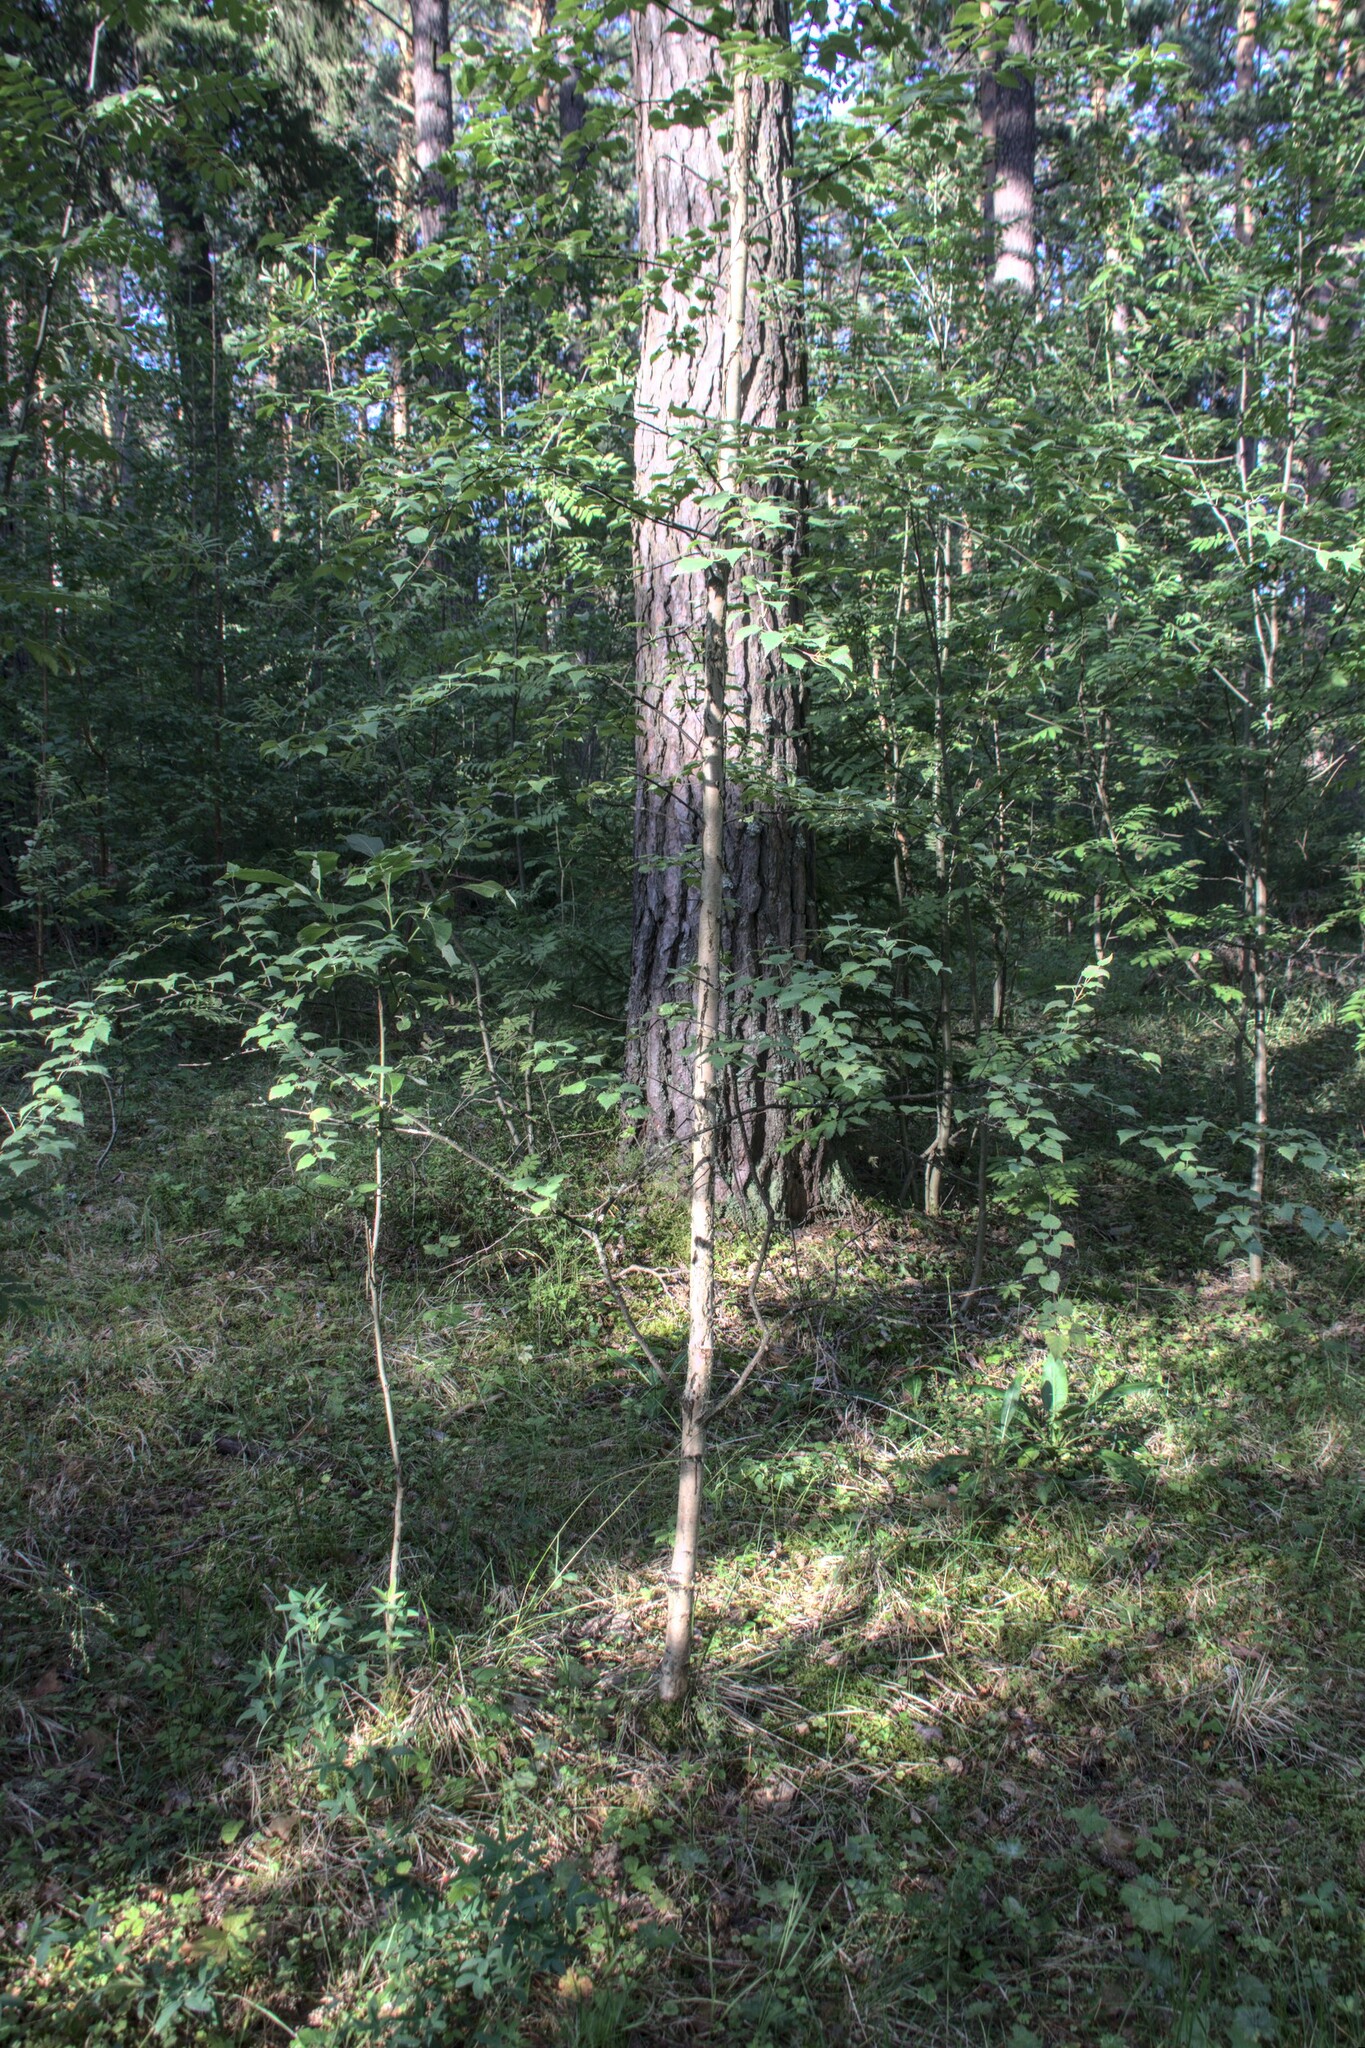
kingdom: Plantae
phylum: Tracheophyta
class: Magnoliopsida
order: Fagales
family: Betulaceae
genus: Betula
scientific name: Betula pubescens
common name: Downy birch
